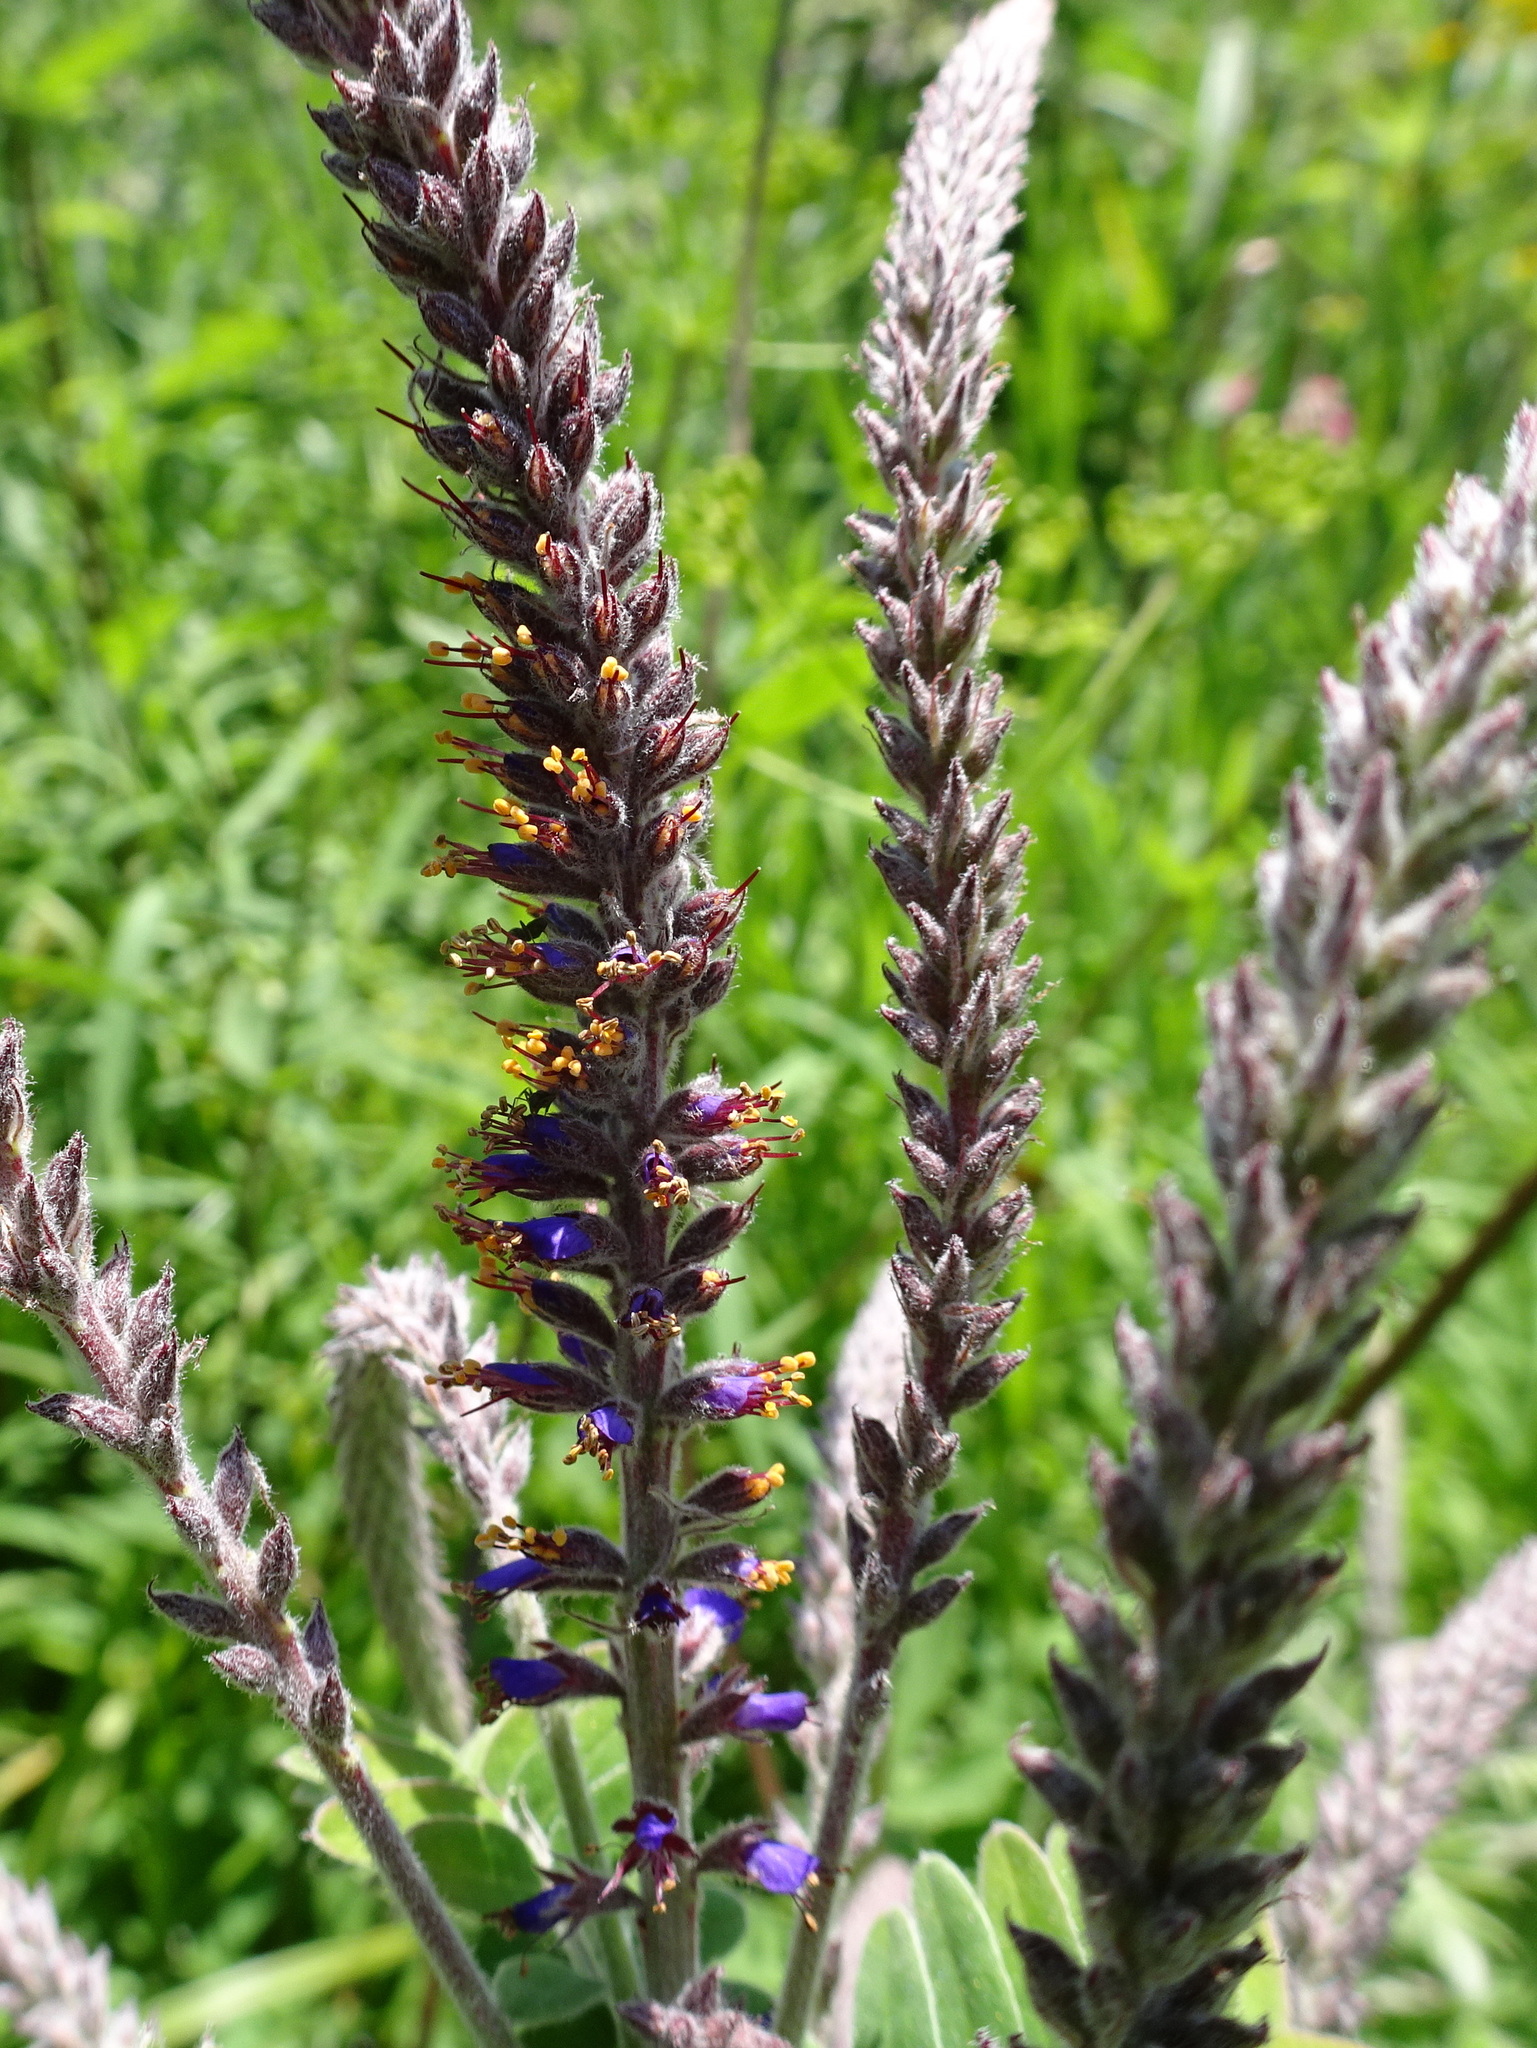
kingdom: Plantae
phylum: Tracheophyta
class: Magnoliopsida
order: Fabales
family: Fabaceae
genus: Amorpha
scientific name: Amorpha canescens
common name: Leadplant
